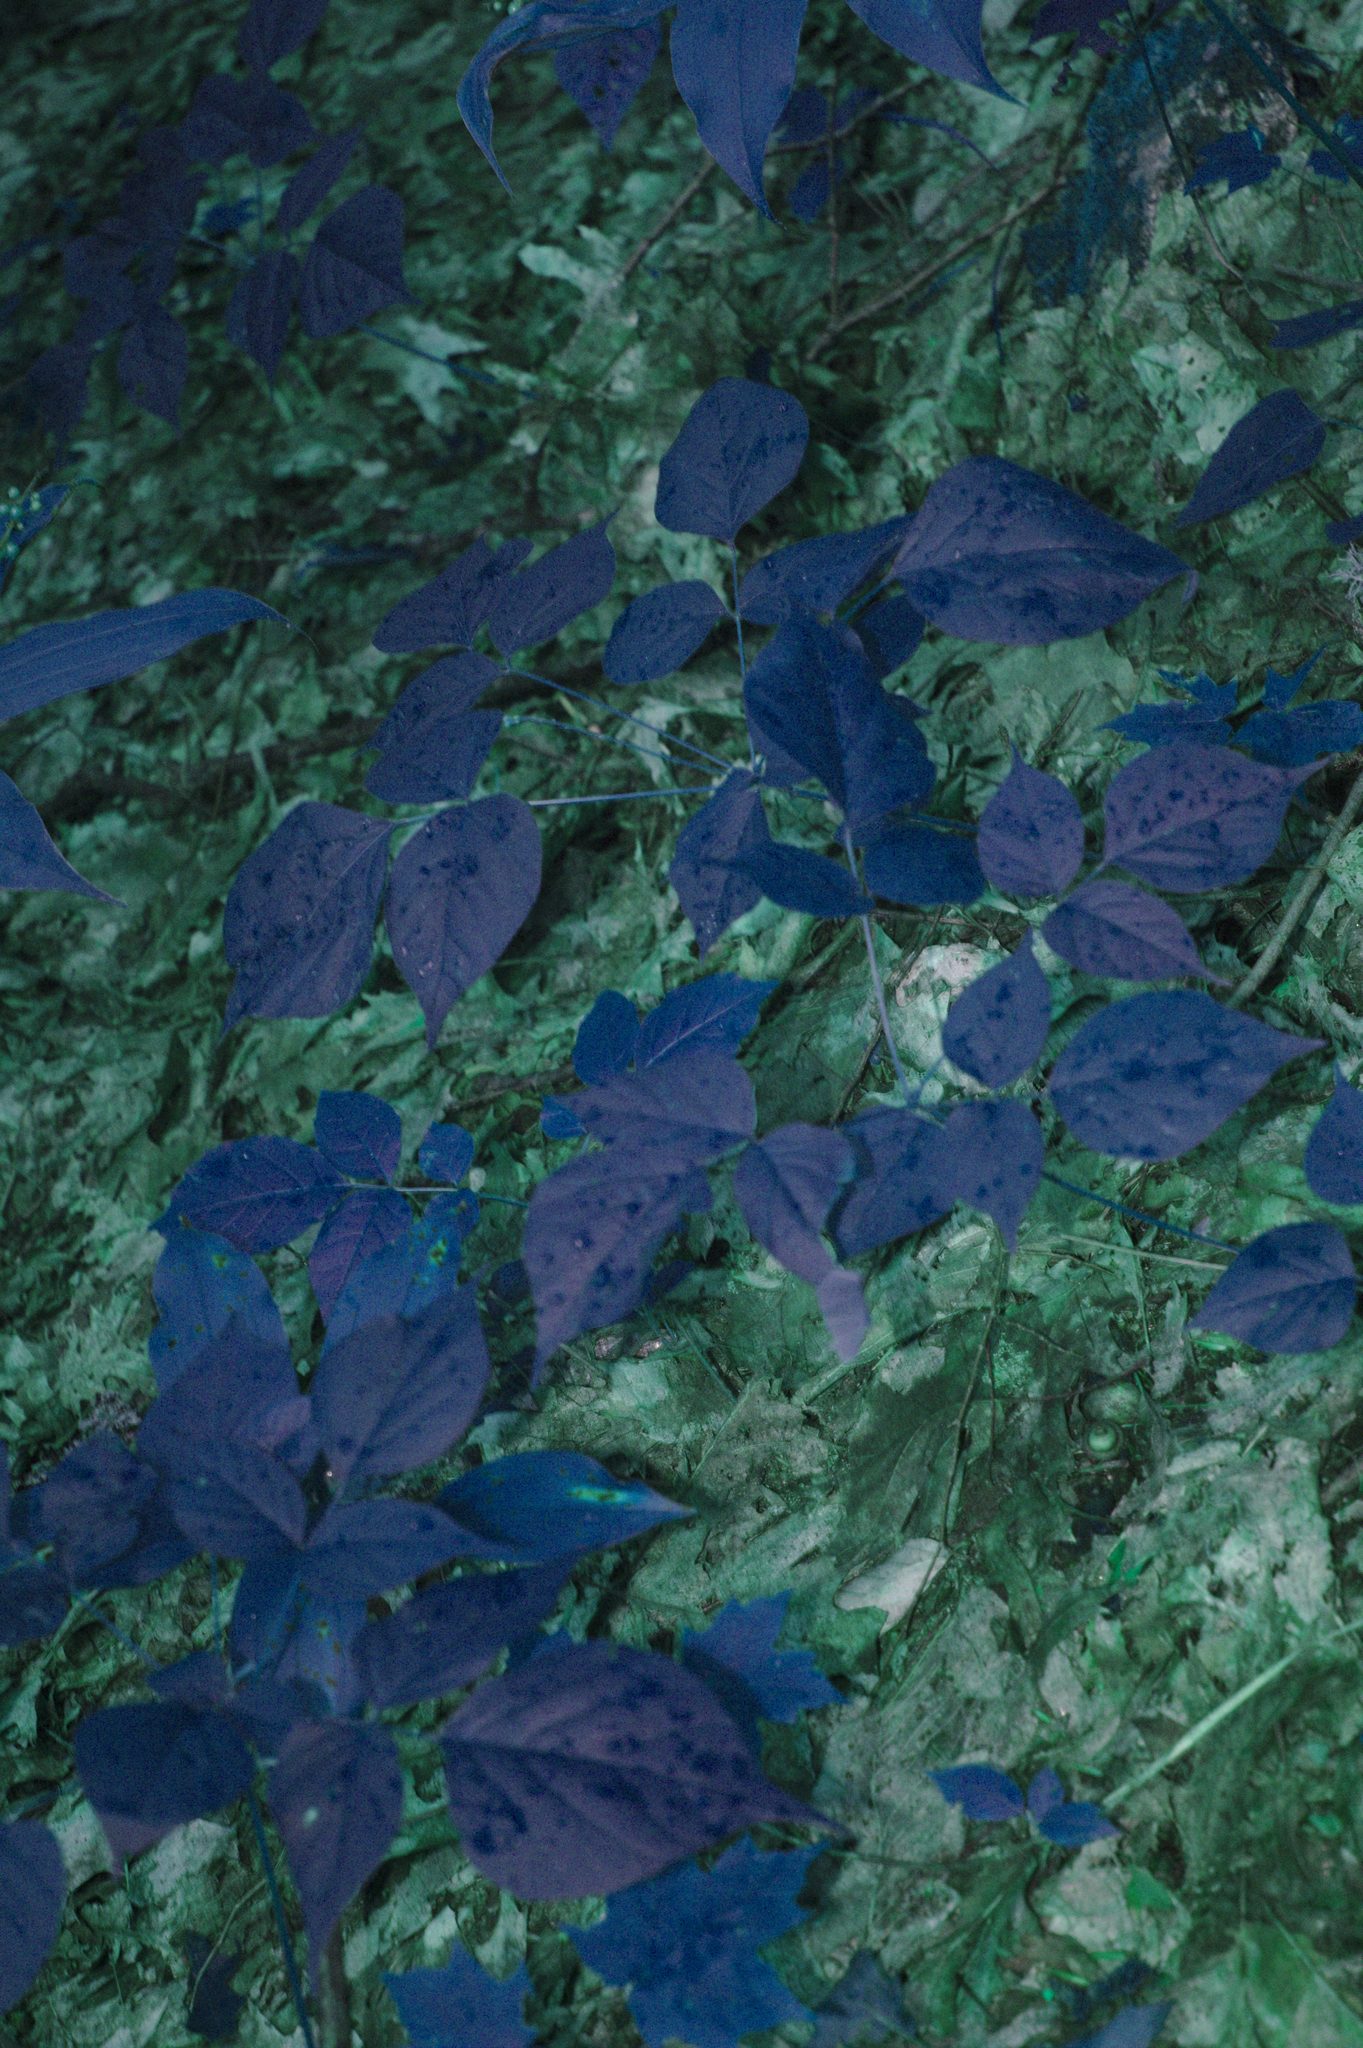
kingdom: Plantae
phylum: Tracheophyta
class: Magnoliopsida
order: Fabales
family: Fabaceae
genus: Hylodesmum
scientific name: Hylodesmum glutinosum
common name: Clustered-leaved tick-trefoil
